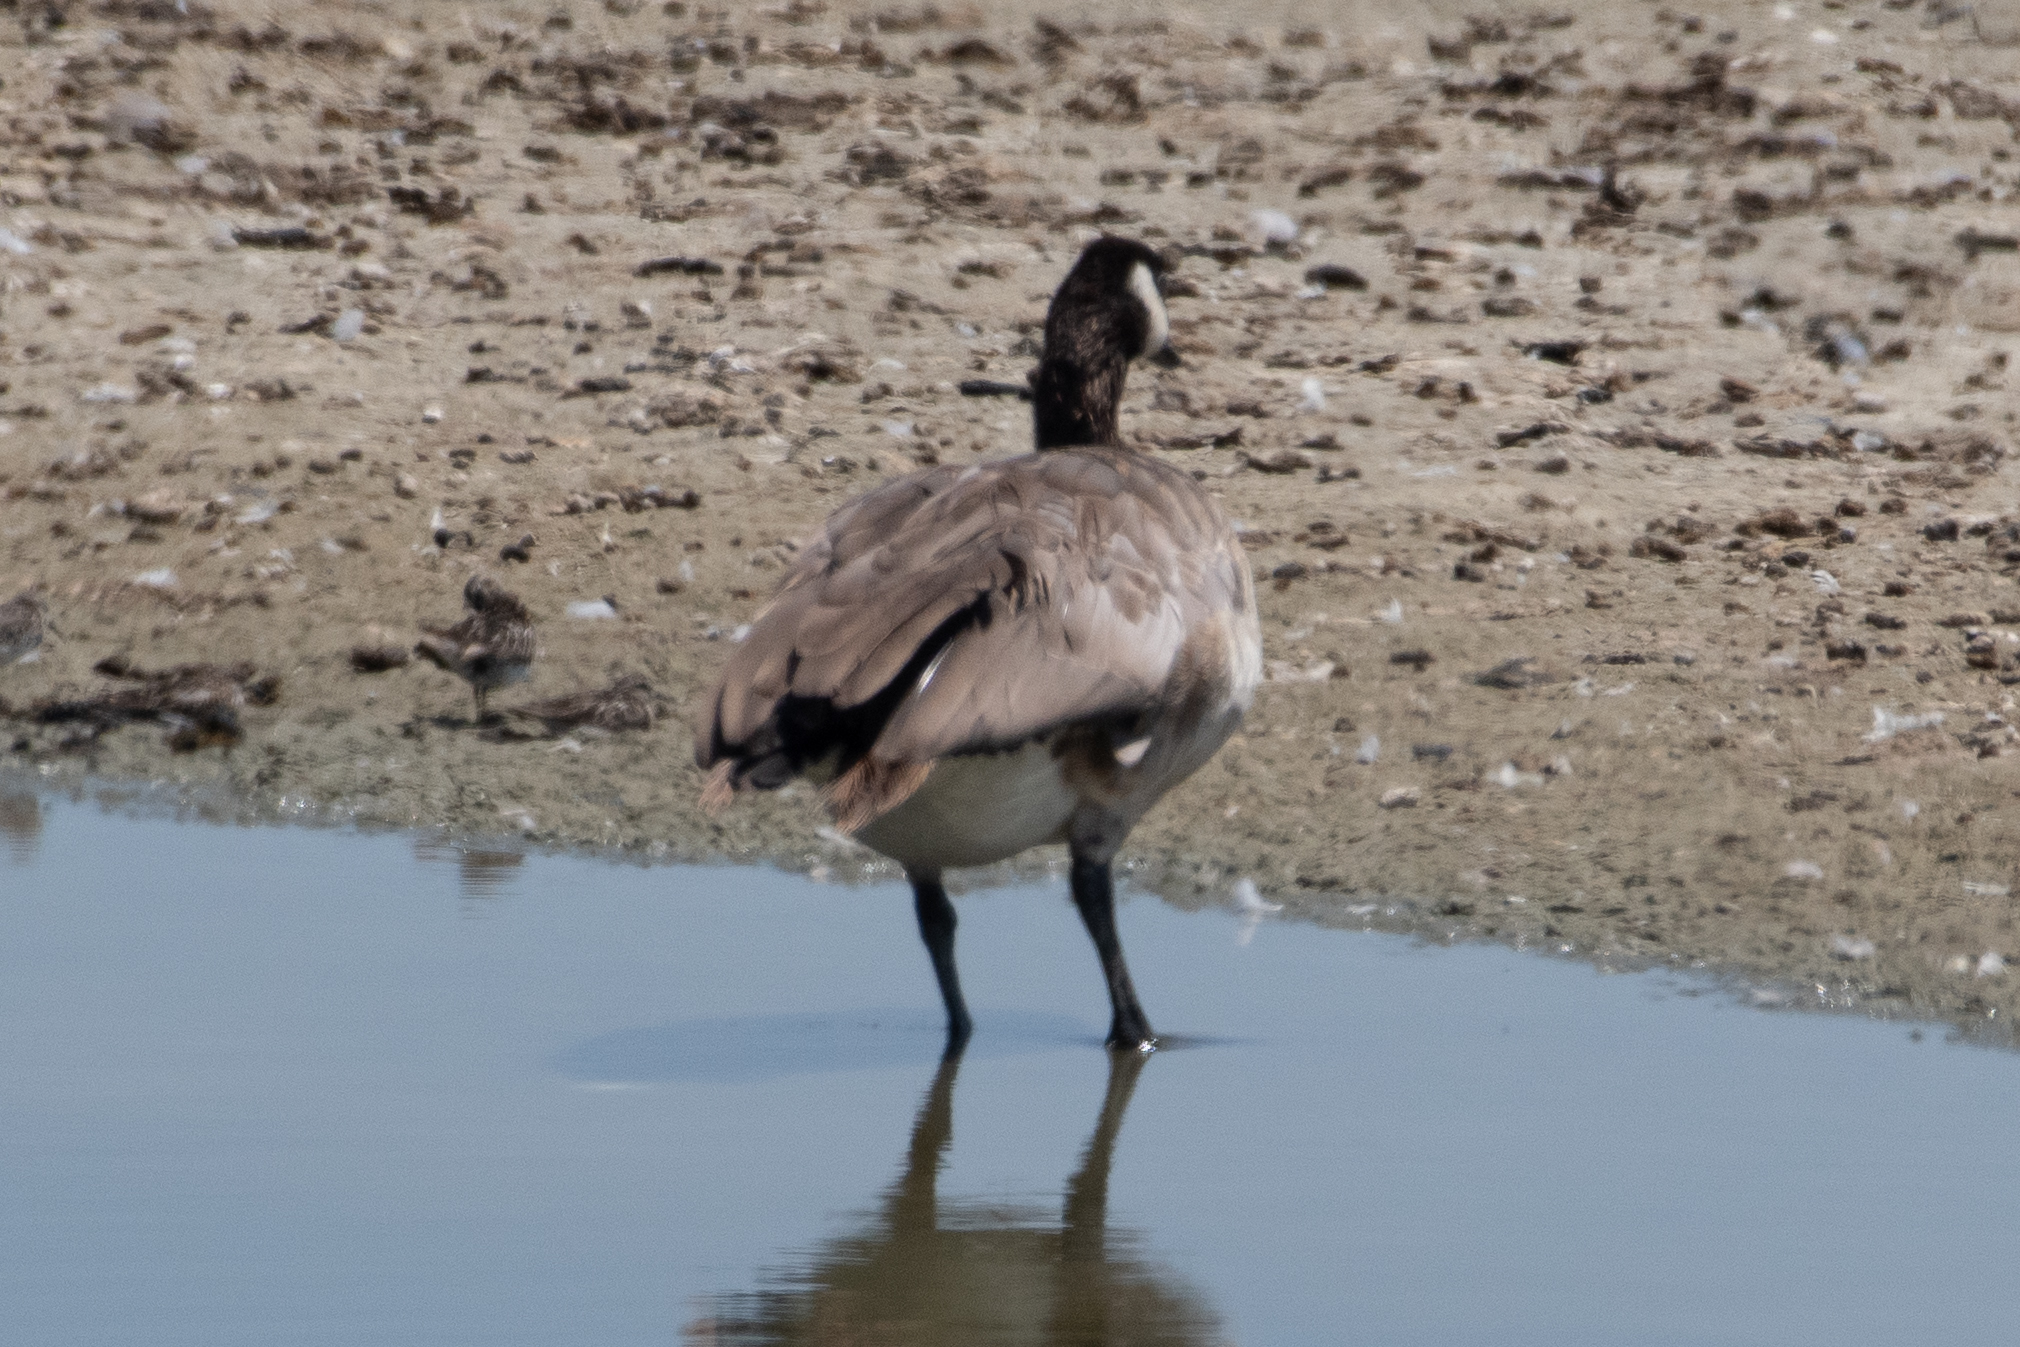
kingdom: Animalia
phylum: Chordata
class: Aves
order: Anseriformes
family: Anatidae
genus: Branta
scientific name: Branta canadensis
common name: Canada goose
